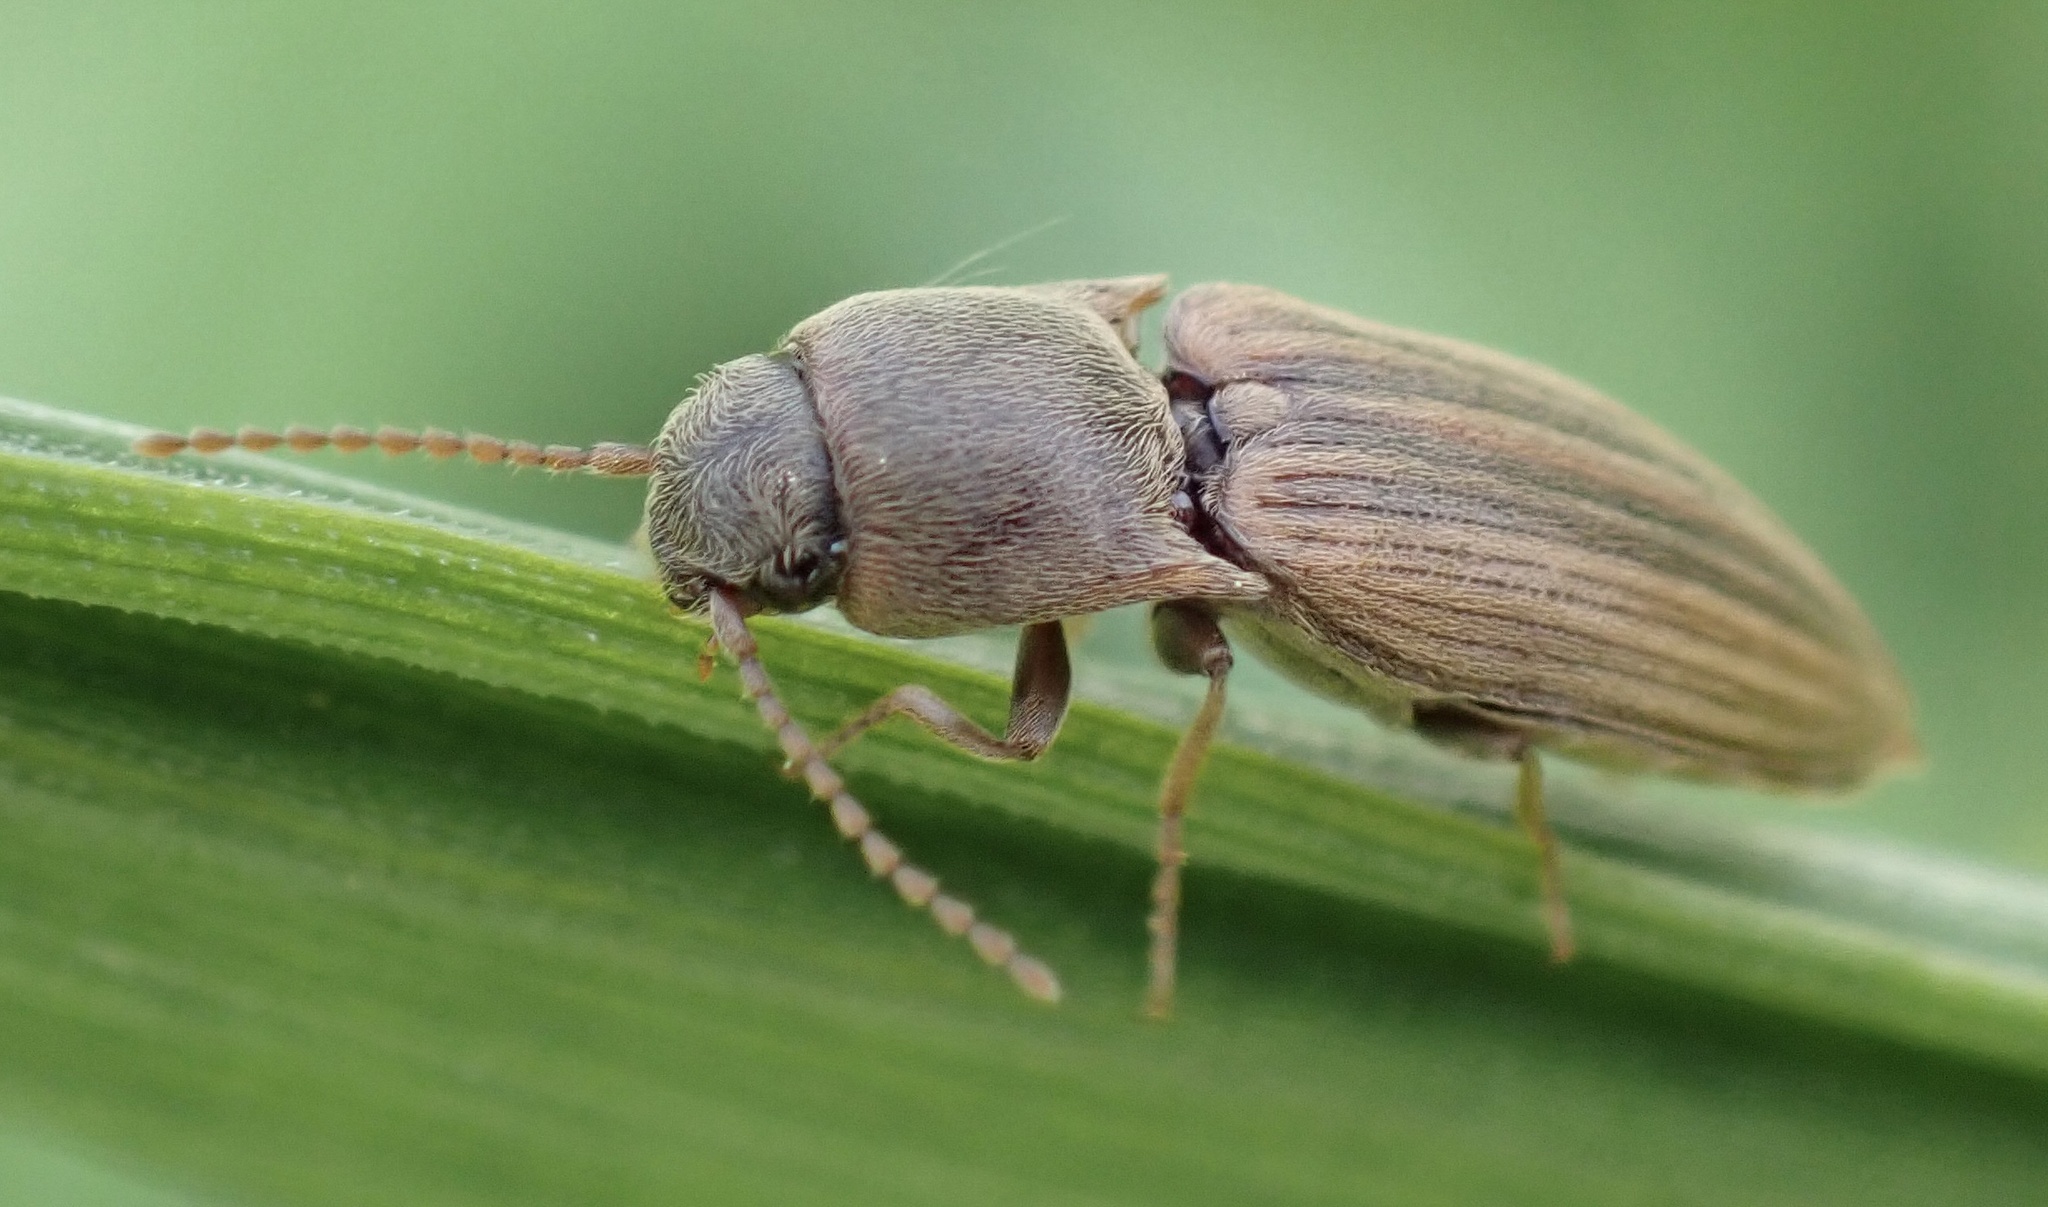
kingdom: Animalia
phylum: Arthropoda
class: Insecta
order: Coleoptera
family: Elateridae
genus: Agriotes
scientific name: Agriotes lineatus
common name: Lined click beetle
